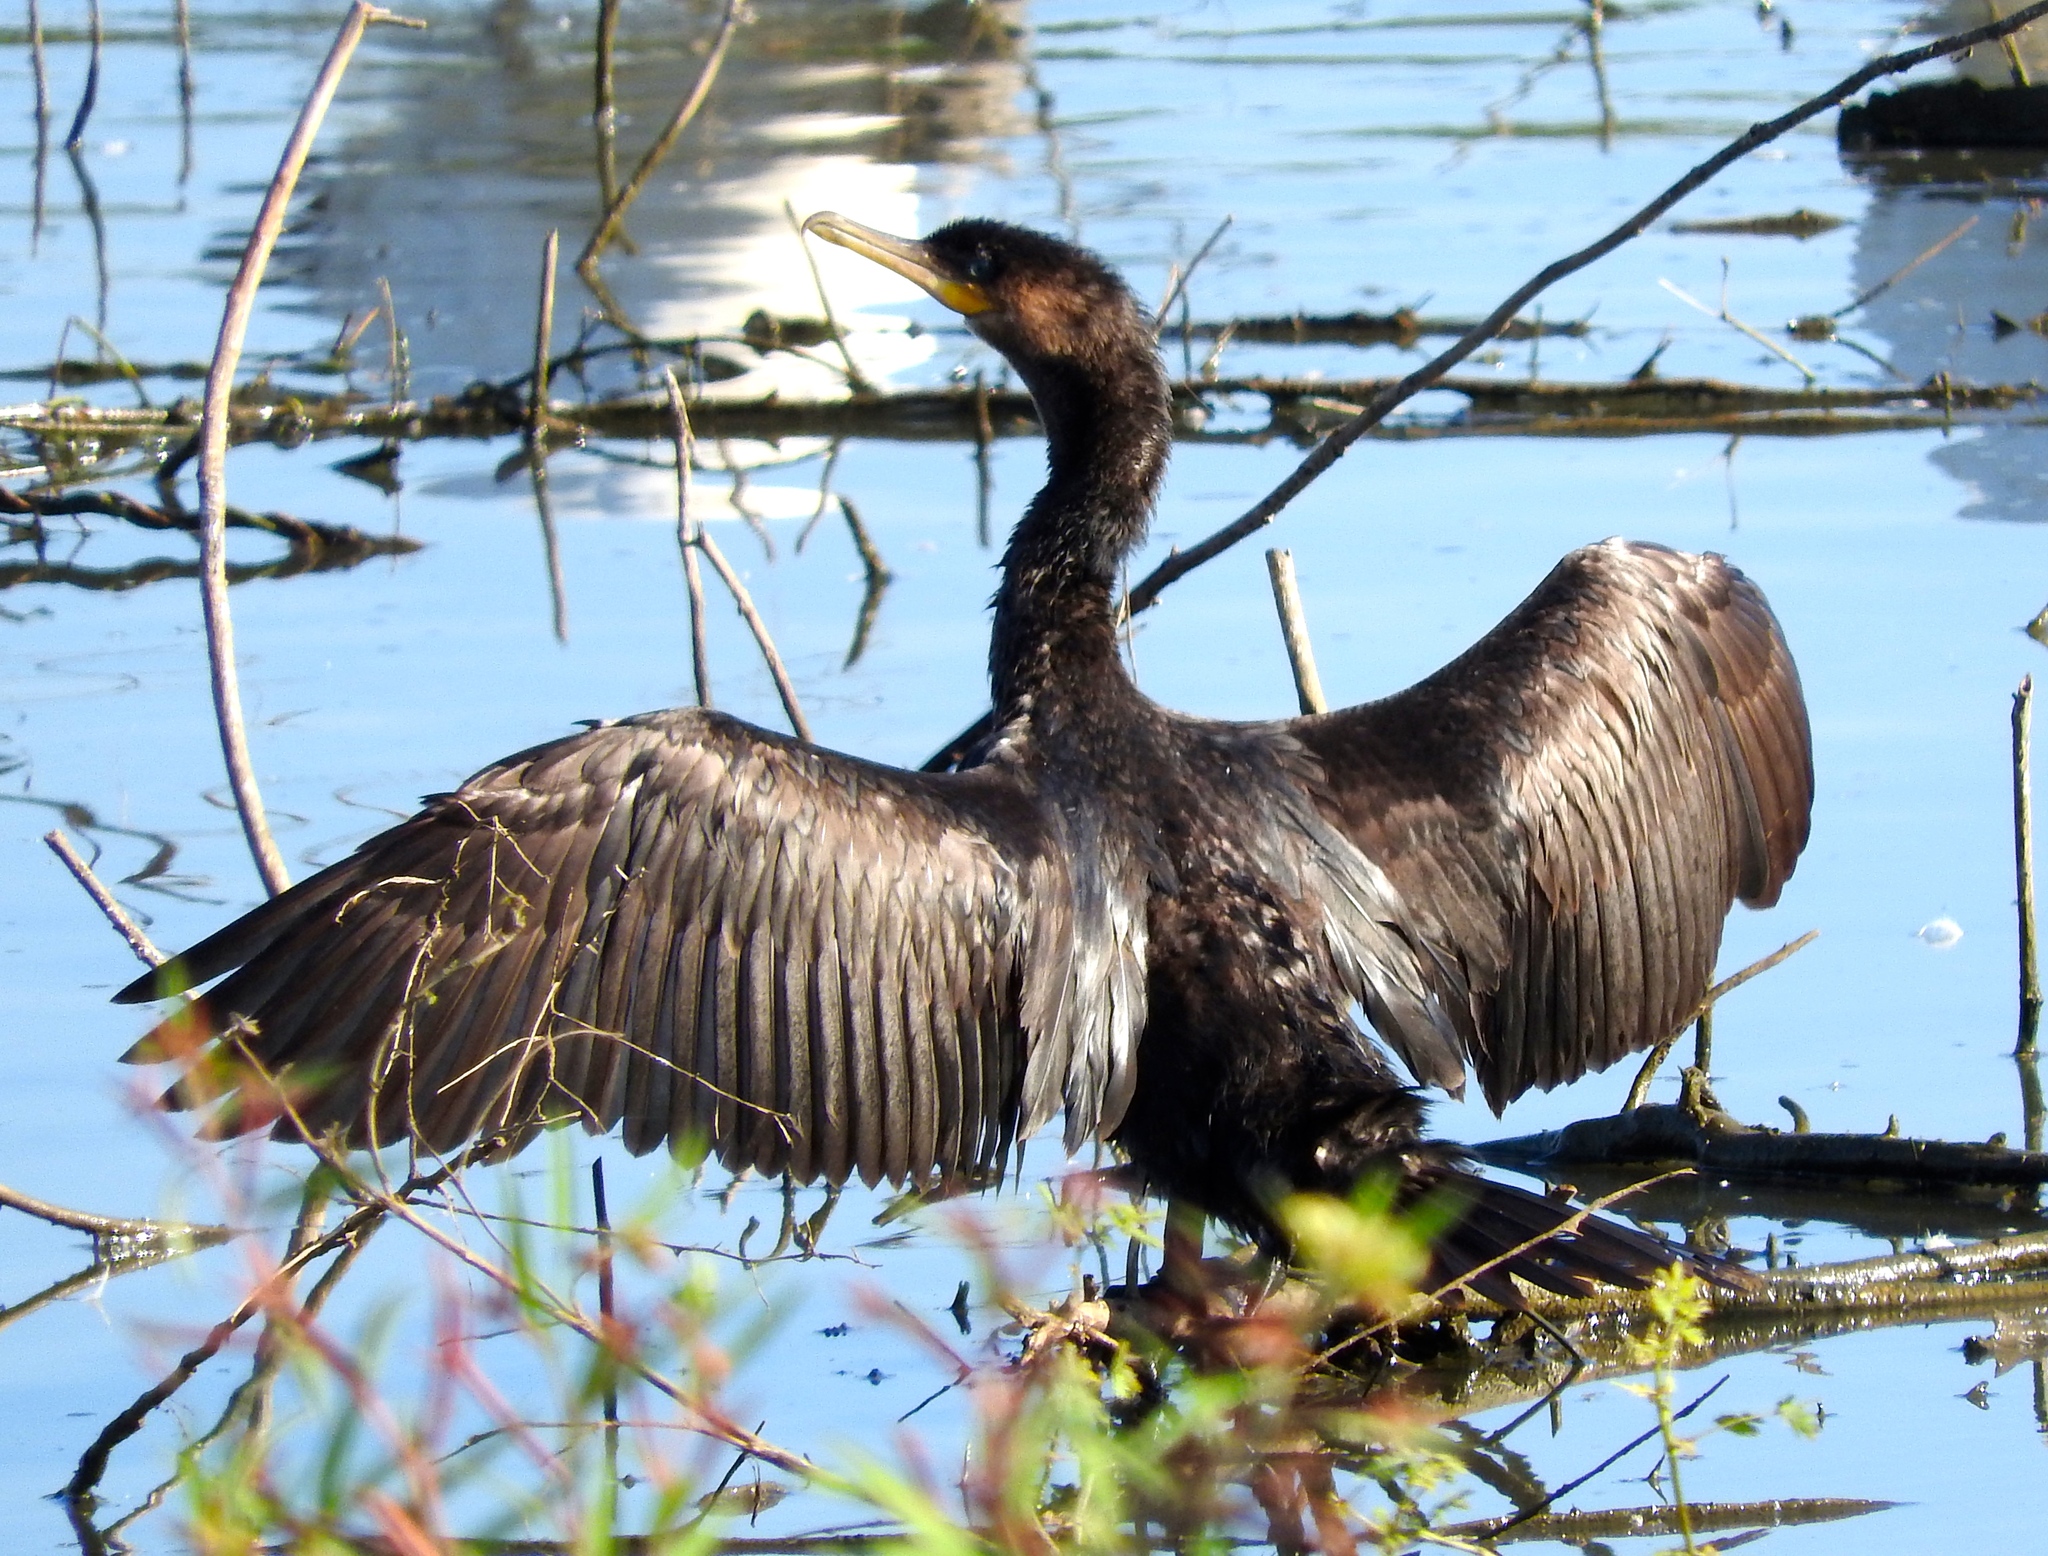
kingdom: Animalia
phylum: Chordata
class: Aves
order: Suliformes
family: Phalacrocoracidae
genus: Phalacrocorax
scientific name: Phalacrocorax brasilianus
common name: Neotropic cormorant
